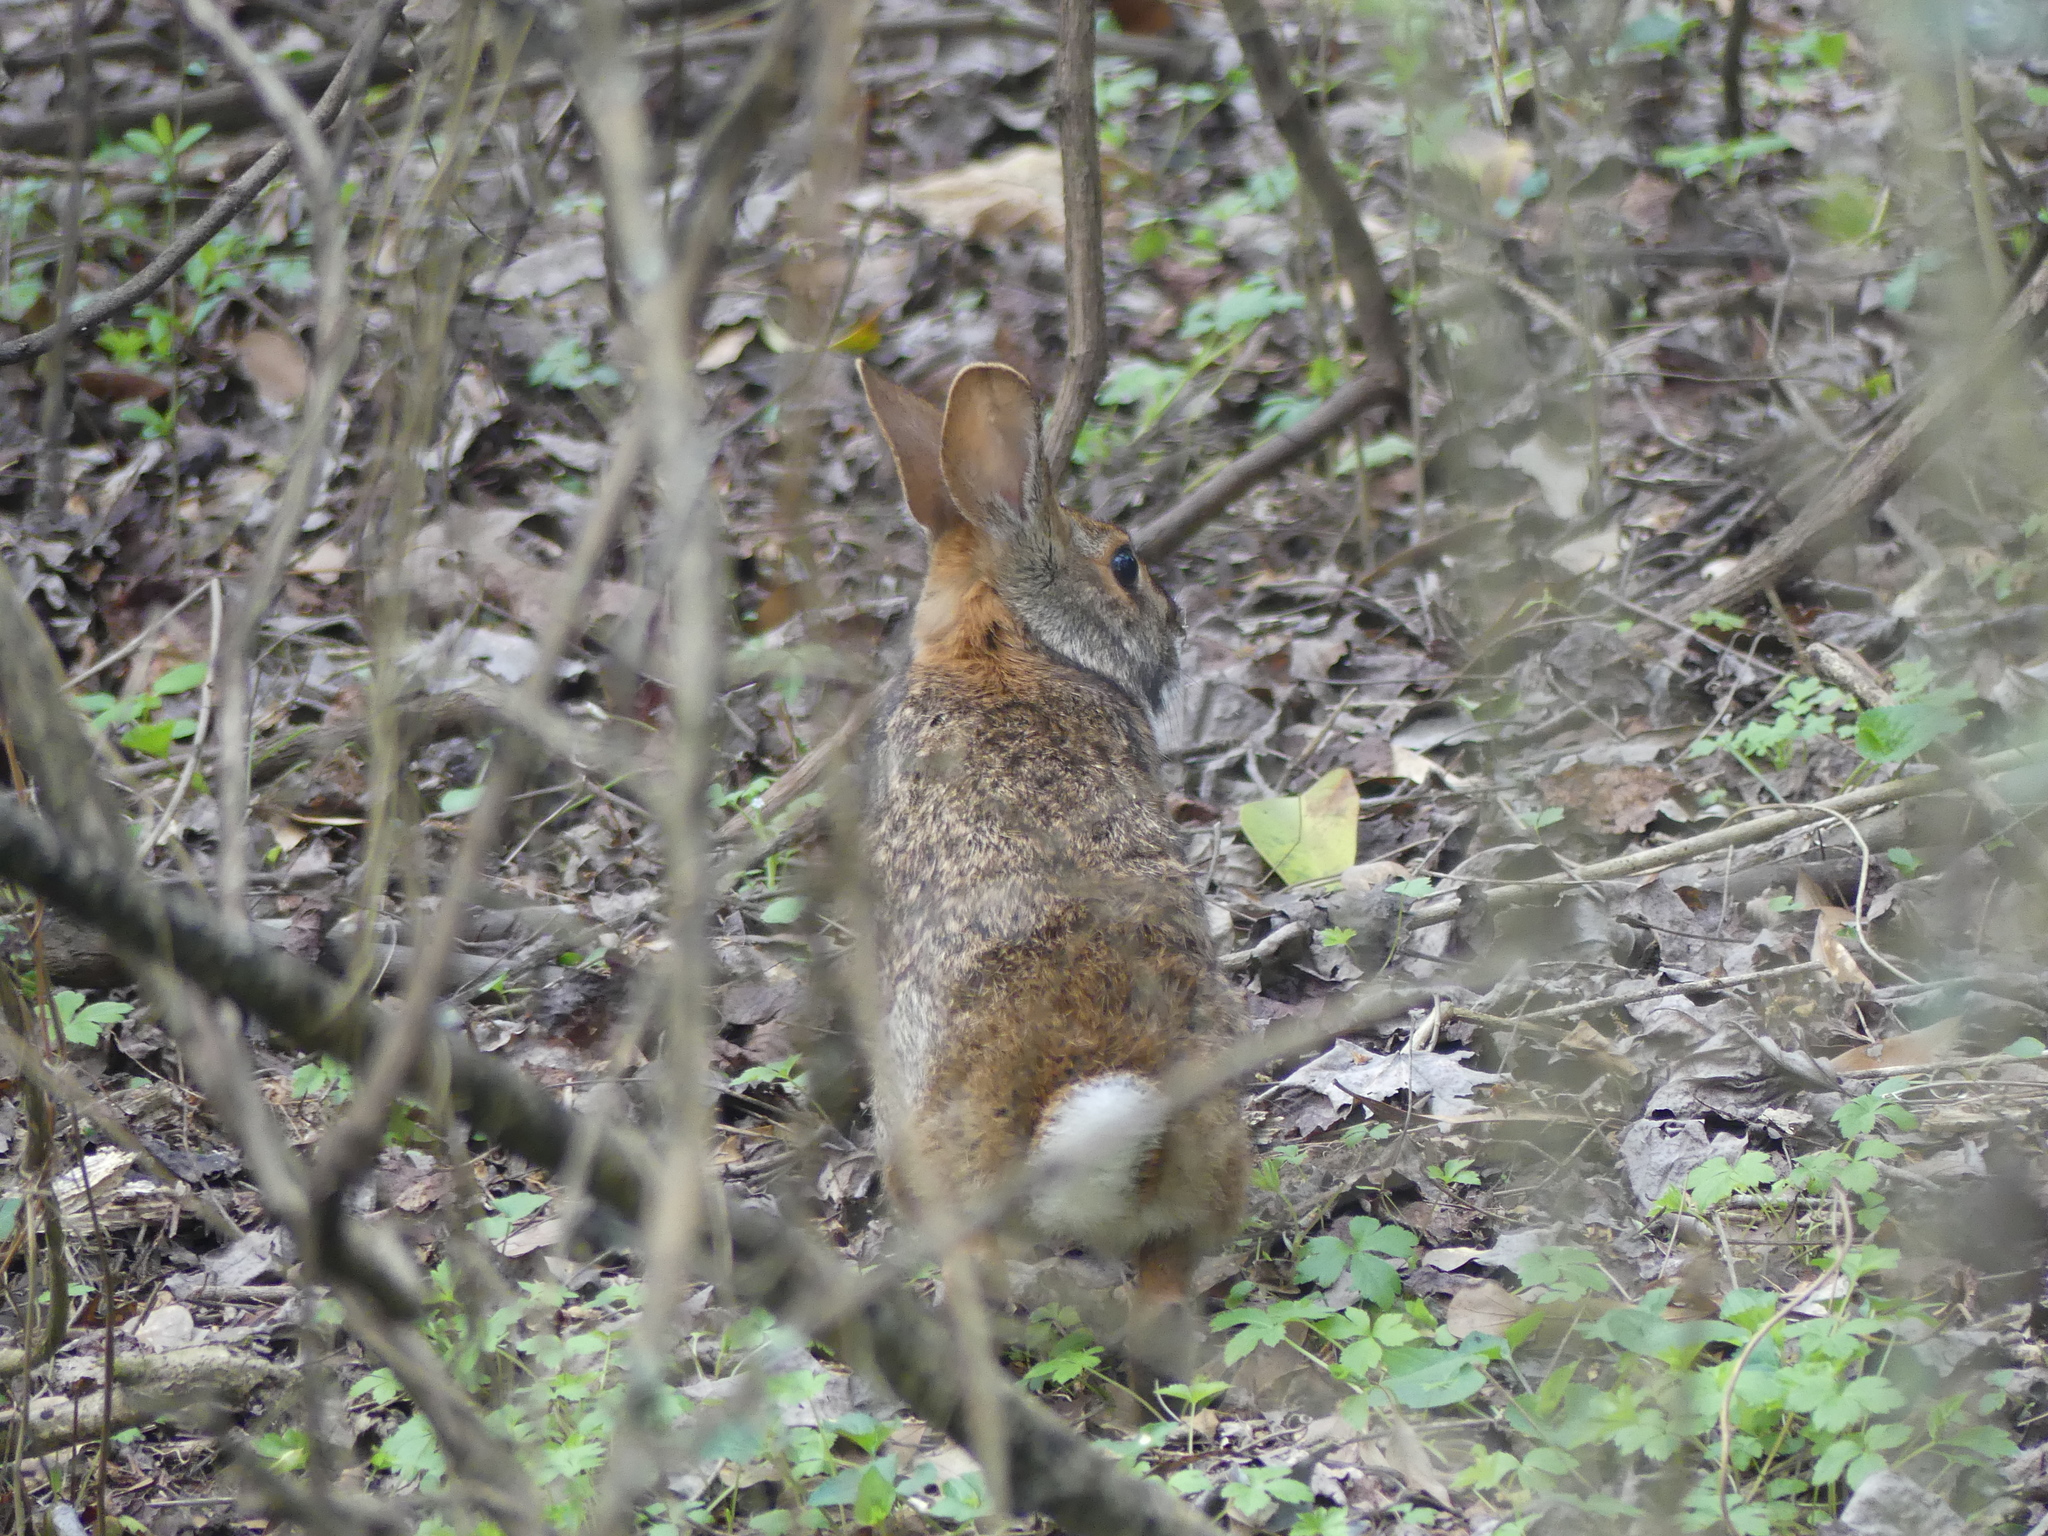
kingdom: Animalia
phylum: Chordata
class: Mammalia
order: Lagomorpha
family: Leporidae
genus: Sylvilagus
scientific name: Sylvilagus aquaticus
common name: Swamp rabbit
